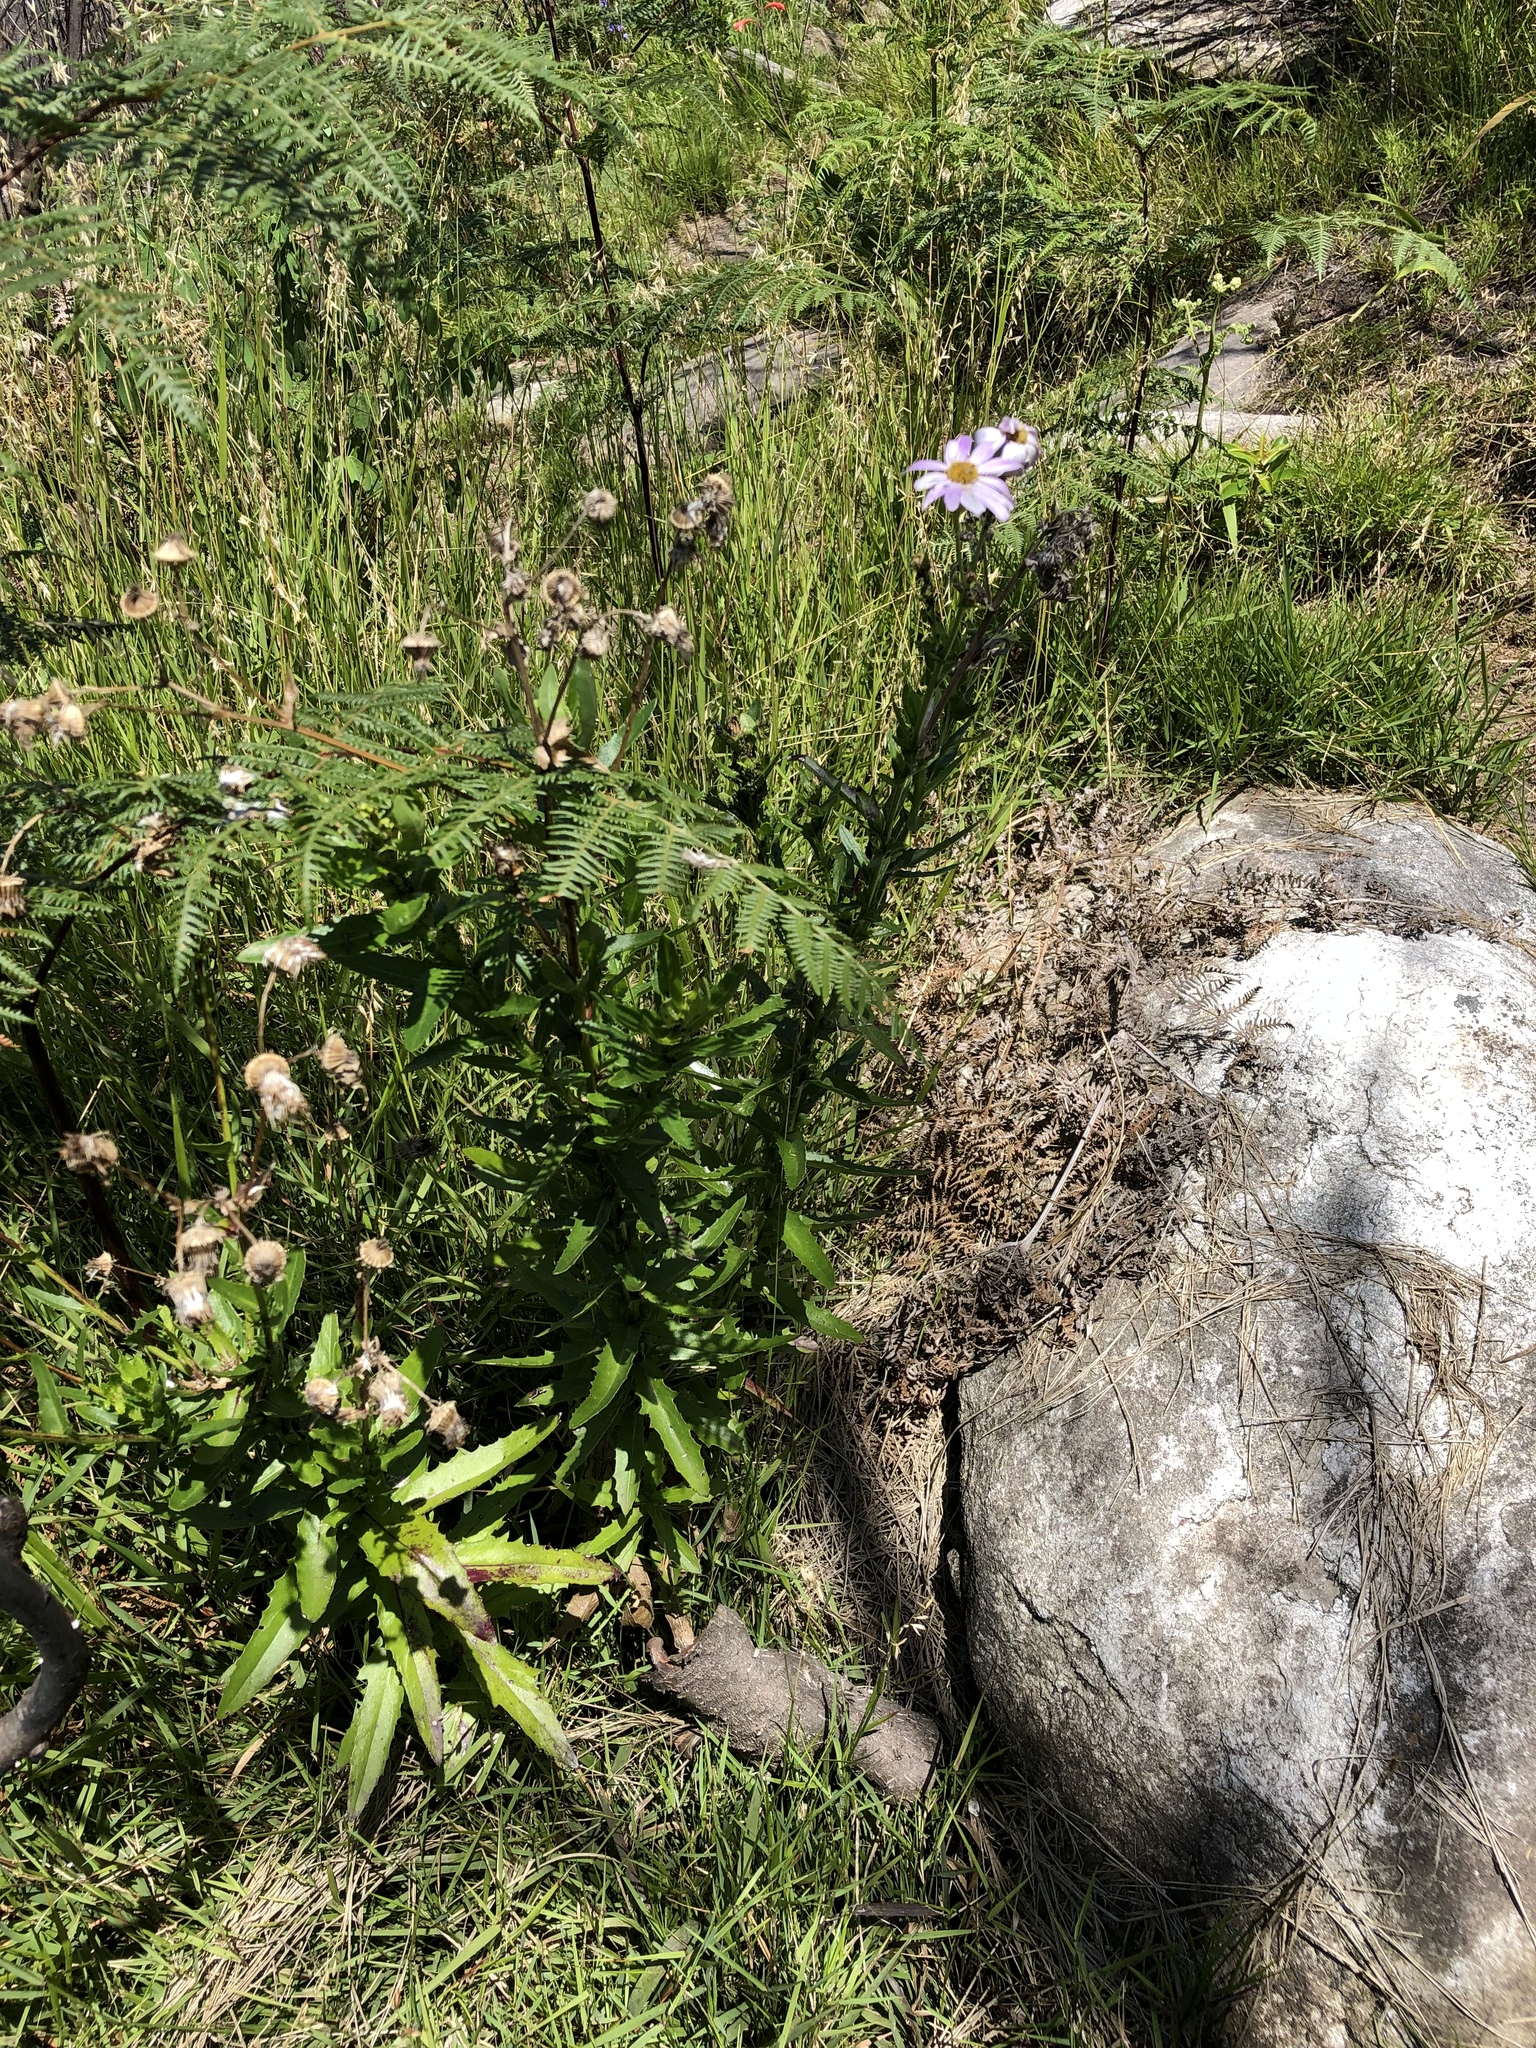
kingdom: Plantae
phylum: Tracheophyta
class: Magnoliopsida
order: Asterales
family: Asteraceae
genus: Senecio
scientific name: Senecio glastifolius
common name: Woad-leaved ragwort
